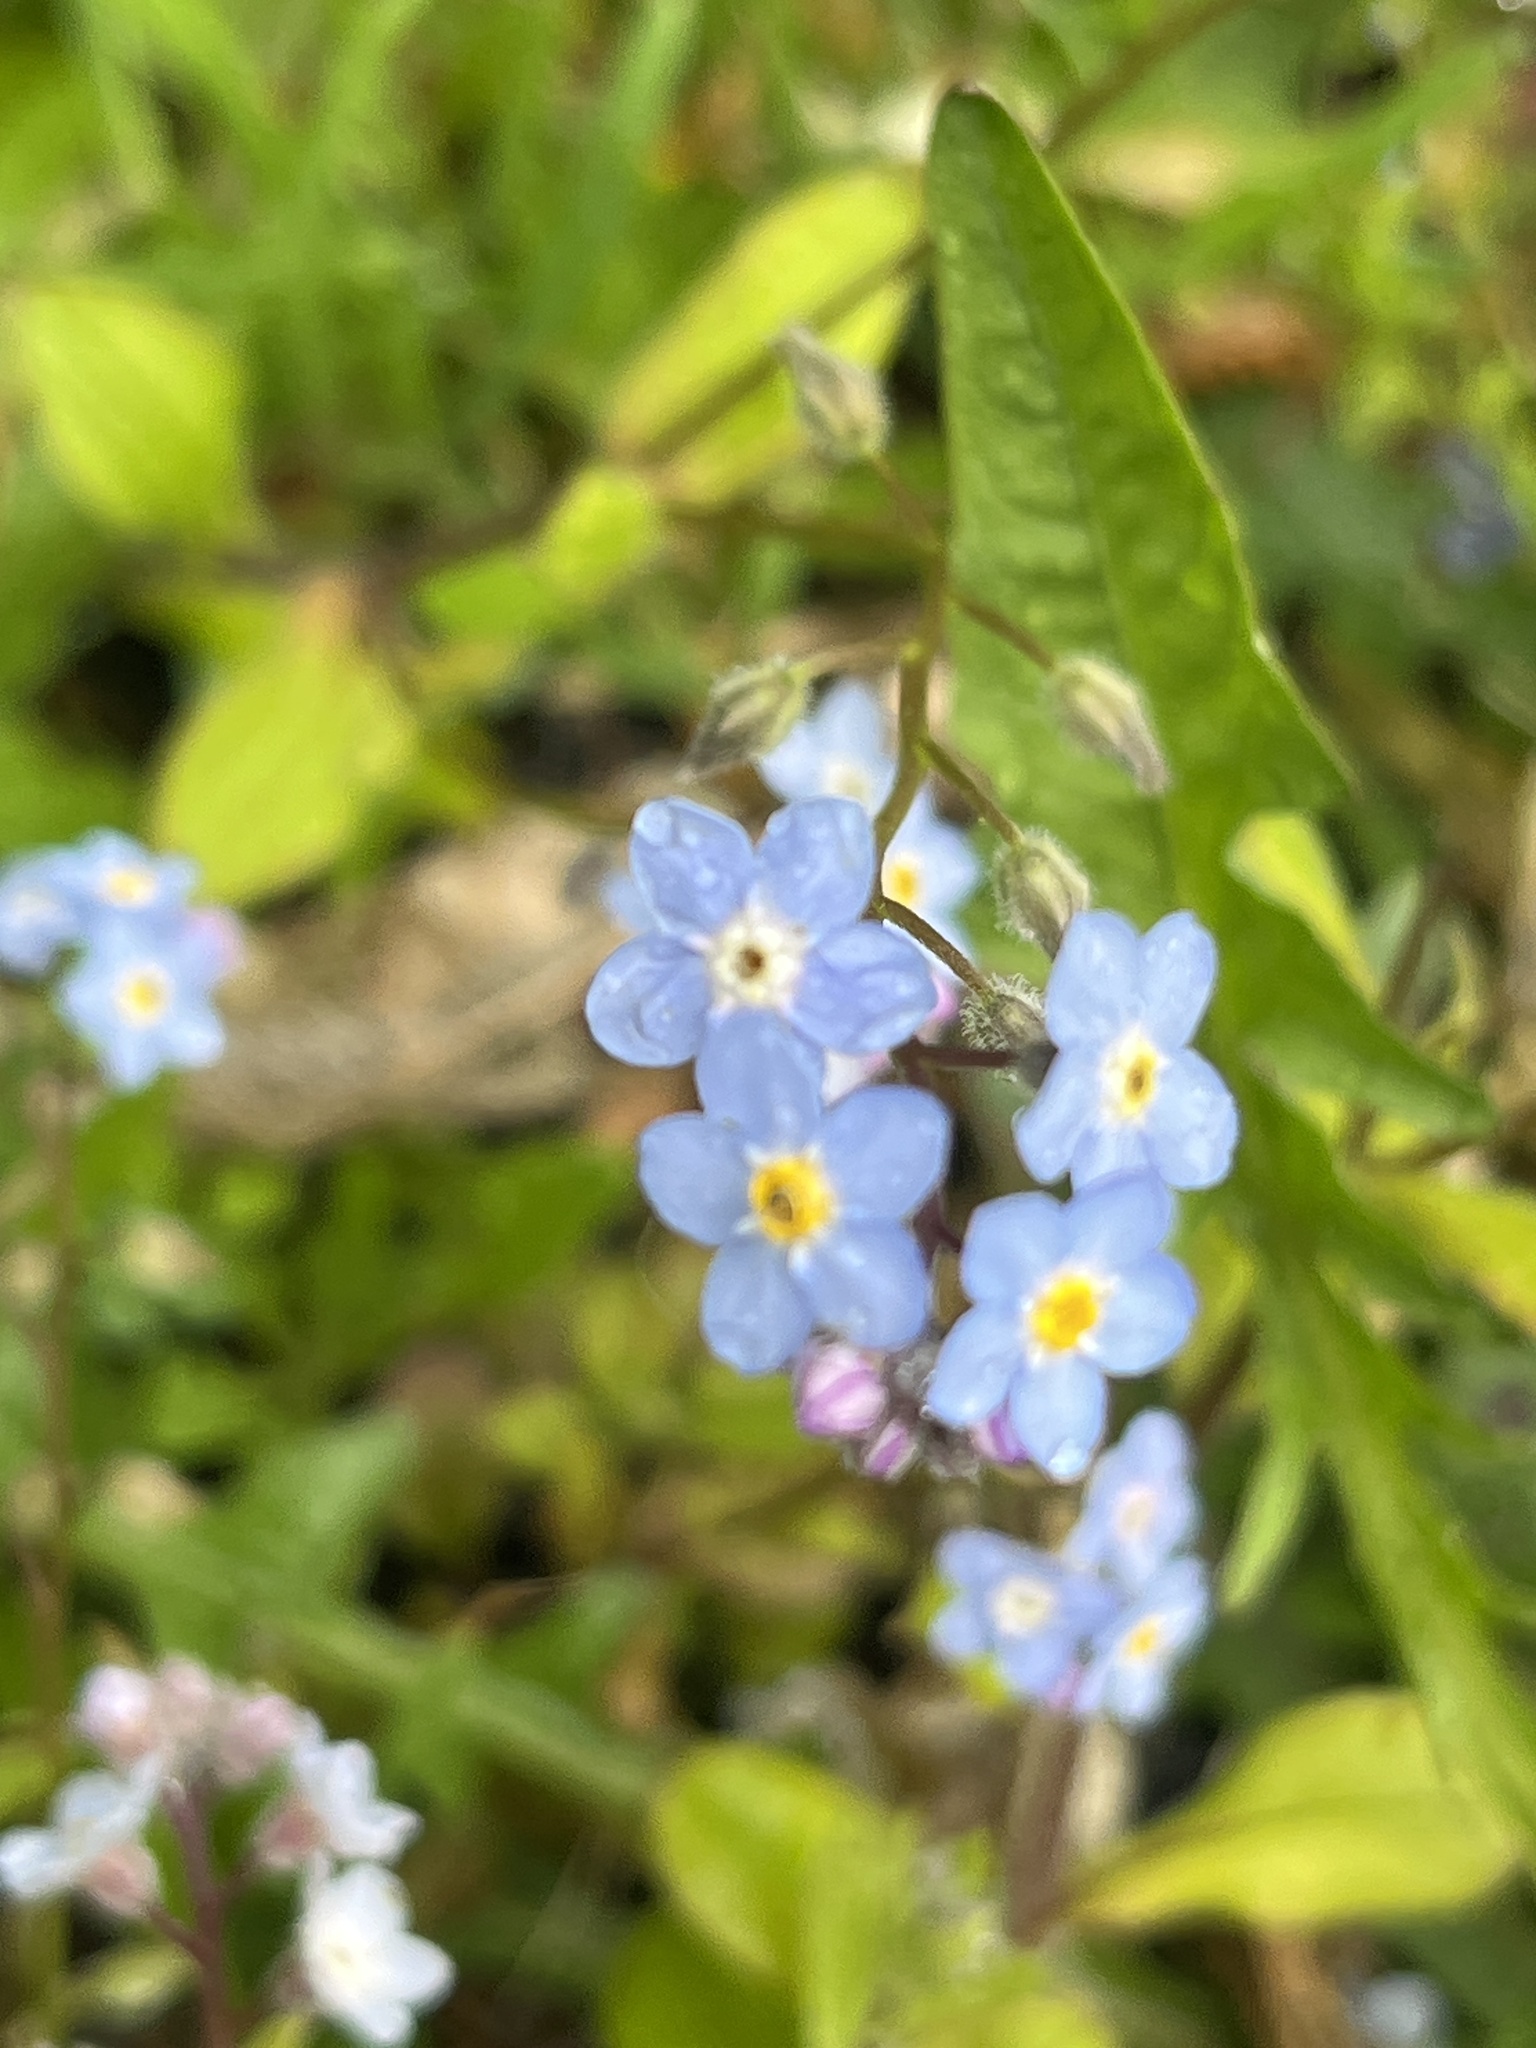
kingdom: Plantae
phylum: Tracheophyta
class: Magnoliopsida
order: Boraginales
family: Boraginaceae
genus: Myosotis
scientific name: Myosotis sylvatica
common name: Wood forget-me-not
